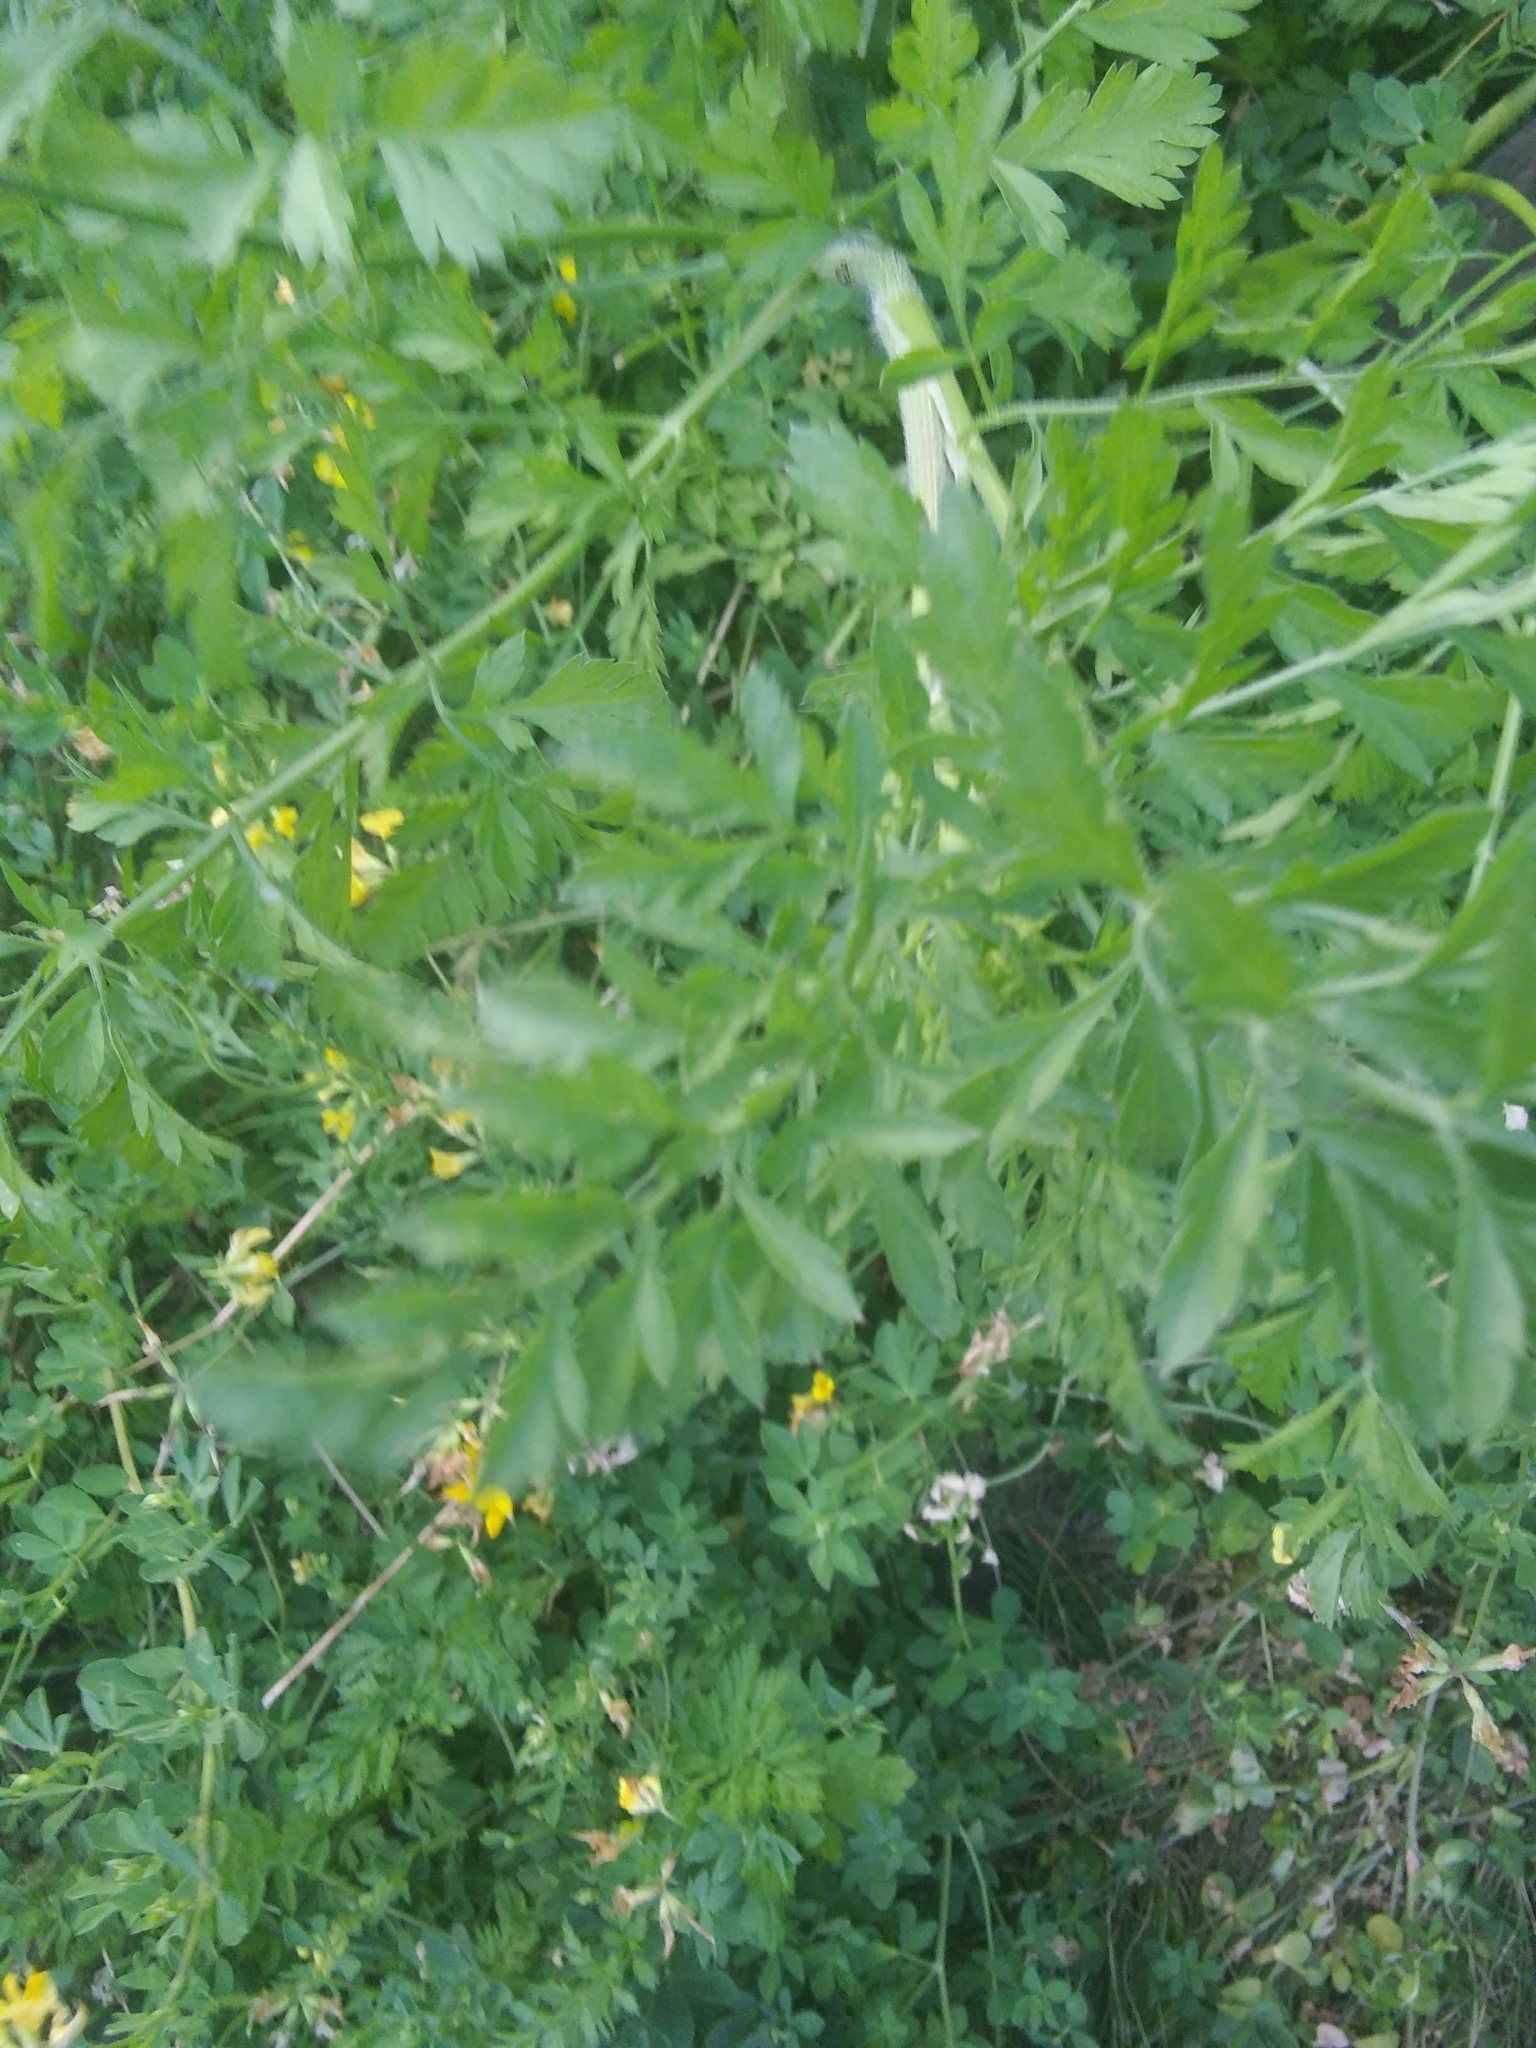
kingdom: Plantae
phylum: Tracheophyta
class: Magnoliopsida
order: Apiales
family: Apiaceae
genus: Daucus
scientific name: Daucus carota
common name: Wild carrot
